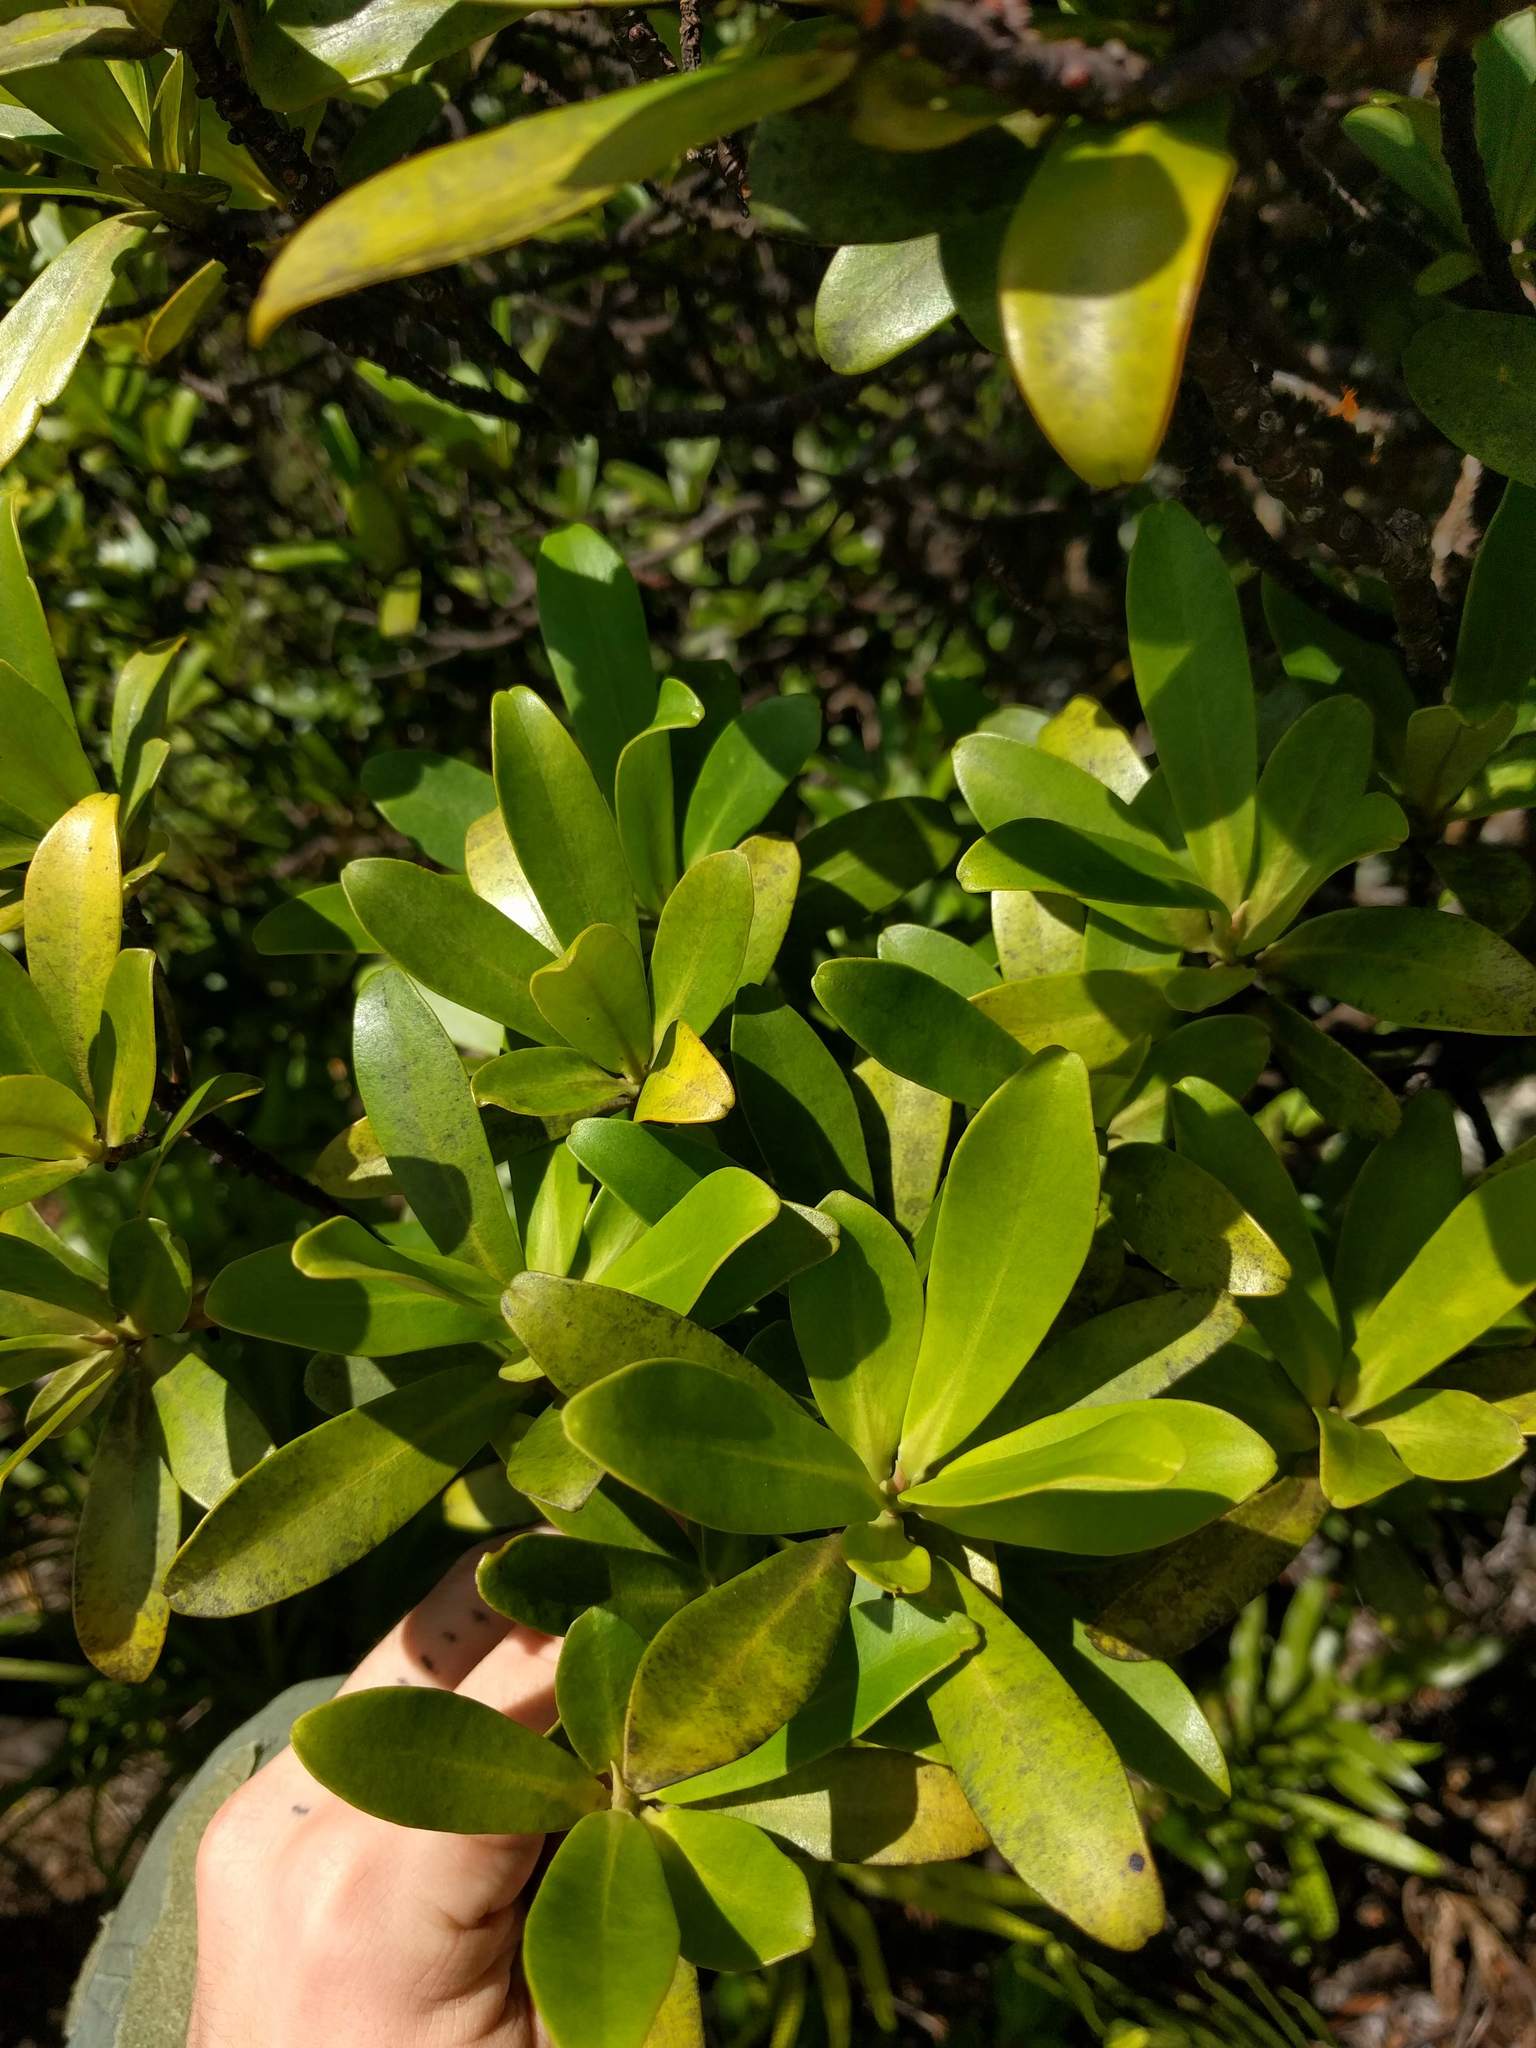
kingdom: Plantae
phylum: Tracheophyta
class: Magnoliopsida
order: Ericales
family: Primulaceae
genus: Myrsine
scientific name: Myrsine lessertiana
